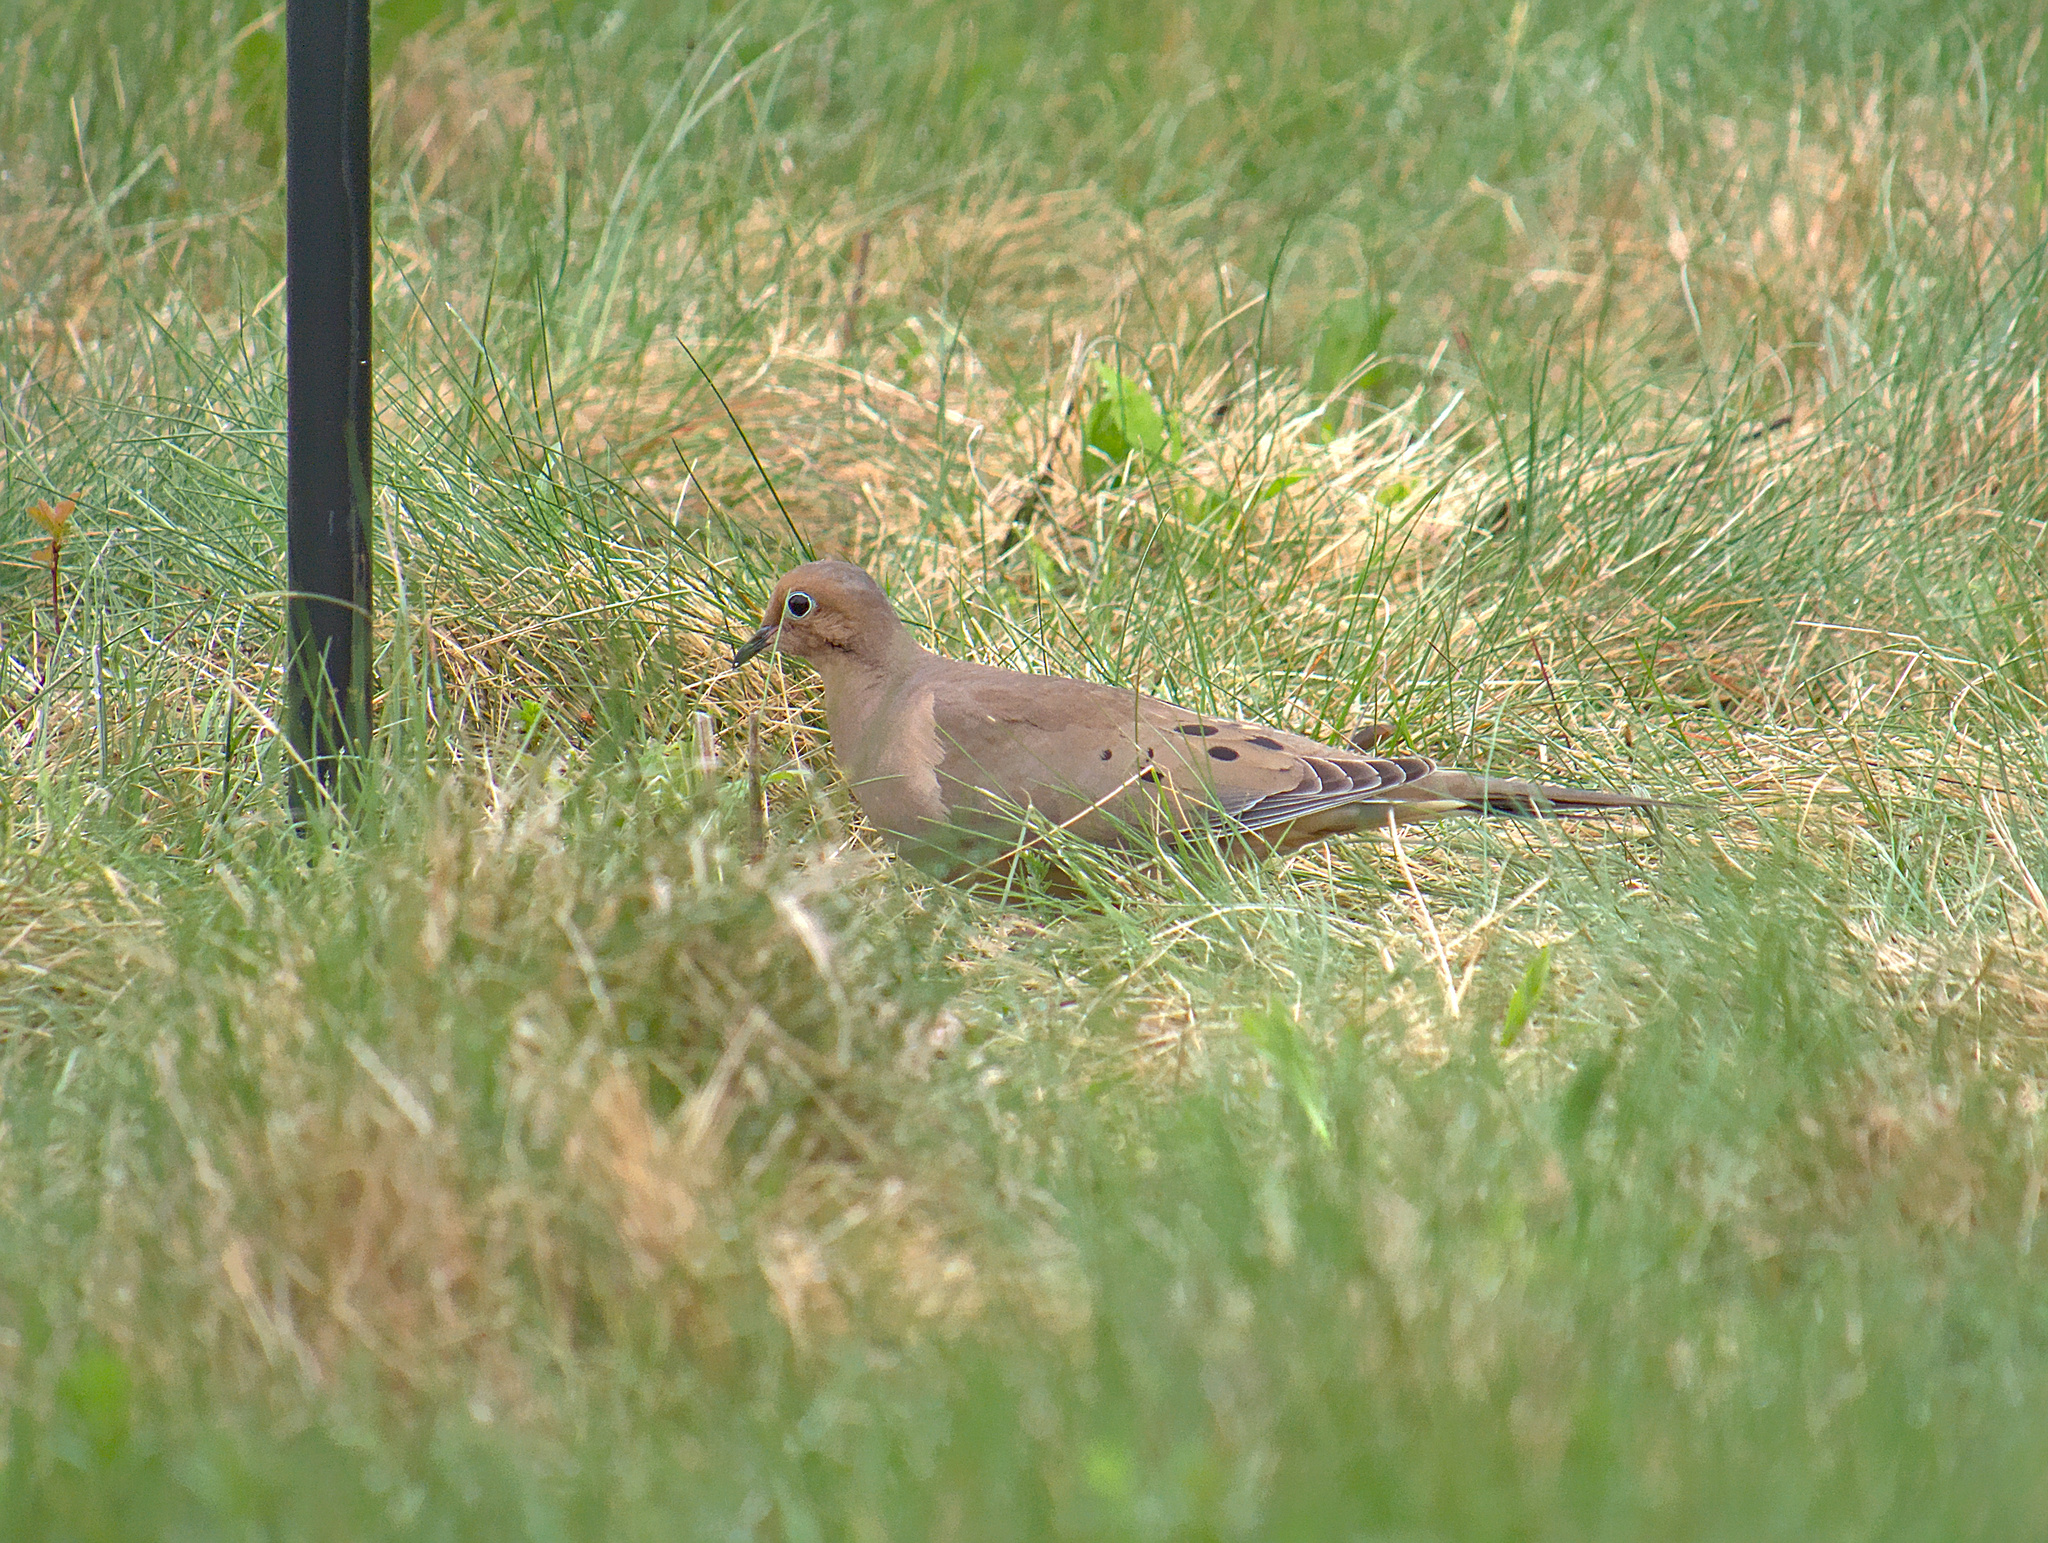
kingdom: Animalia
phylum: Chordata
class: Aves
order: Columbiformes
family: Columbidae
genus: Zenaida
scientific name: Zenaida macroura
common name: Mourning dove
